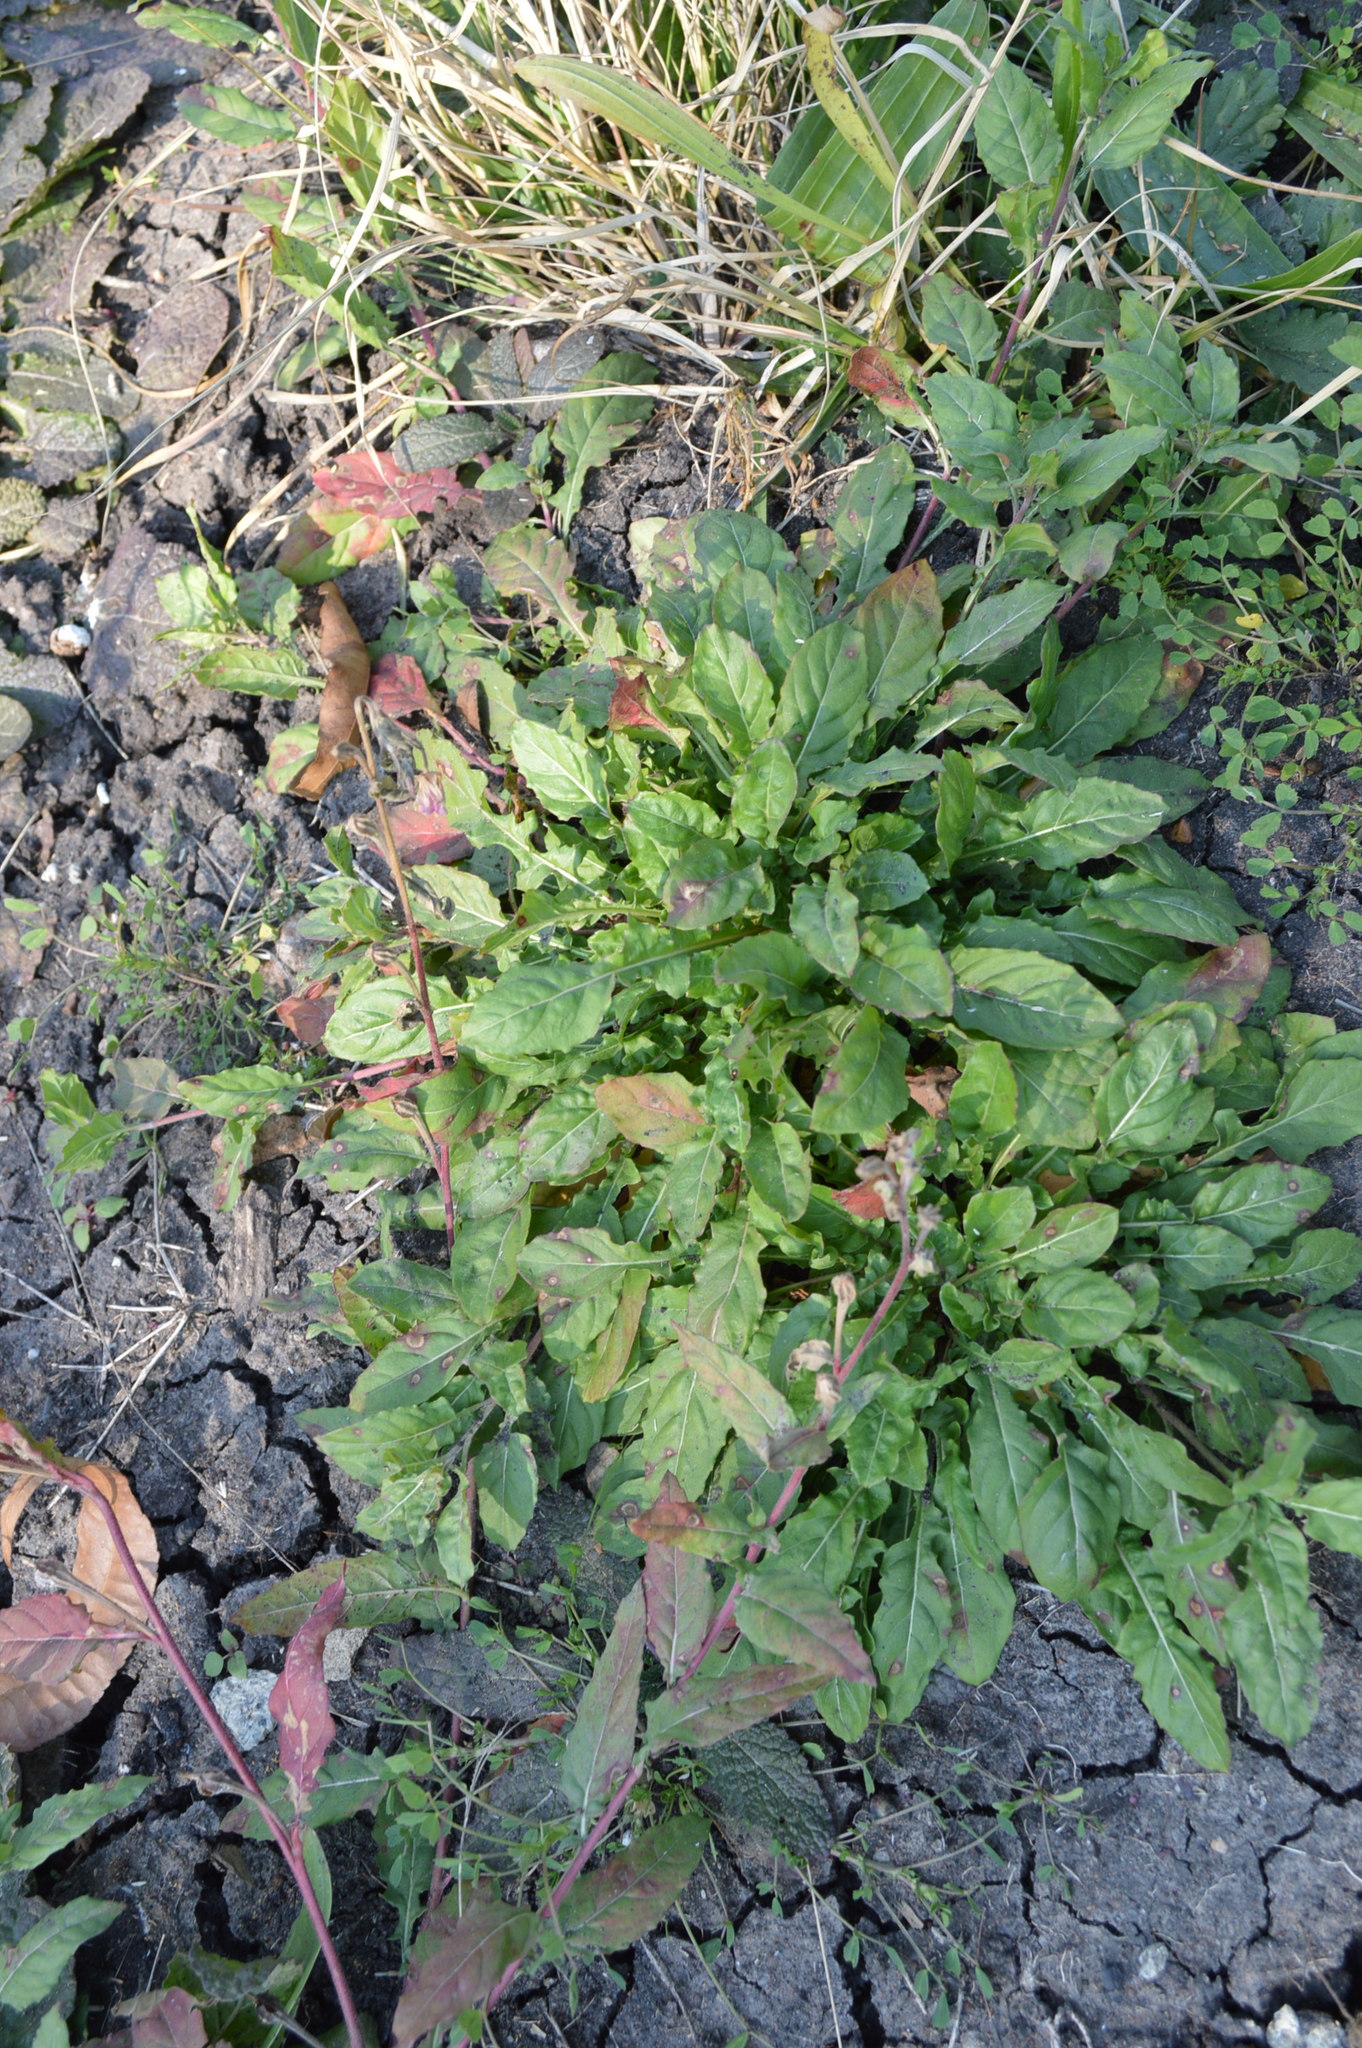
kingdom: Plantae
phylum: Tracheophyta
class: Magnoliopsida
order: Myrtales
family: Onagraceae
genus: Oenothera
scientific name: Oenothera rosea
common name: Rosy evening-primrose
